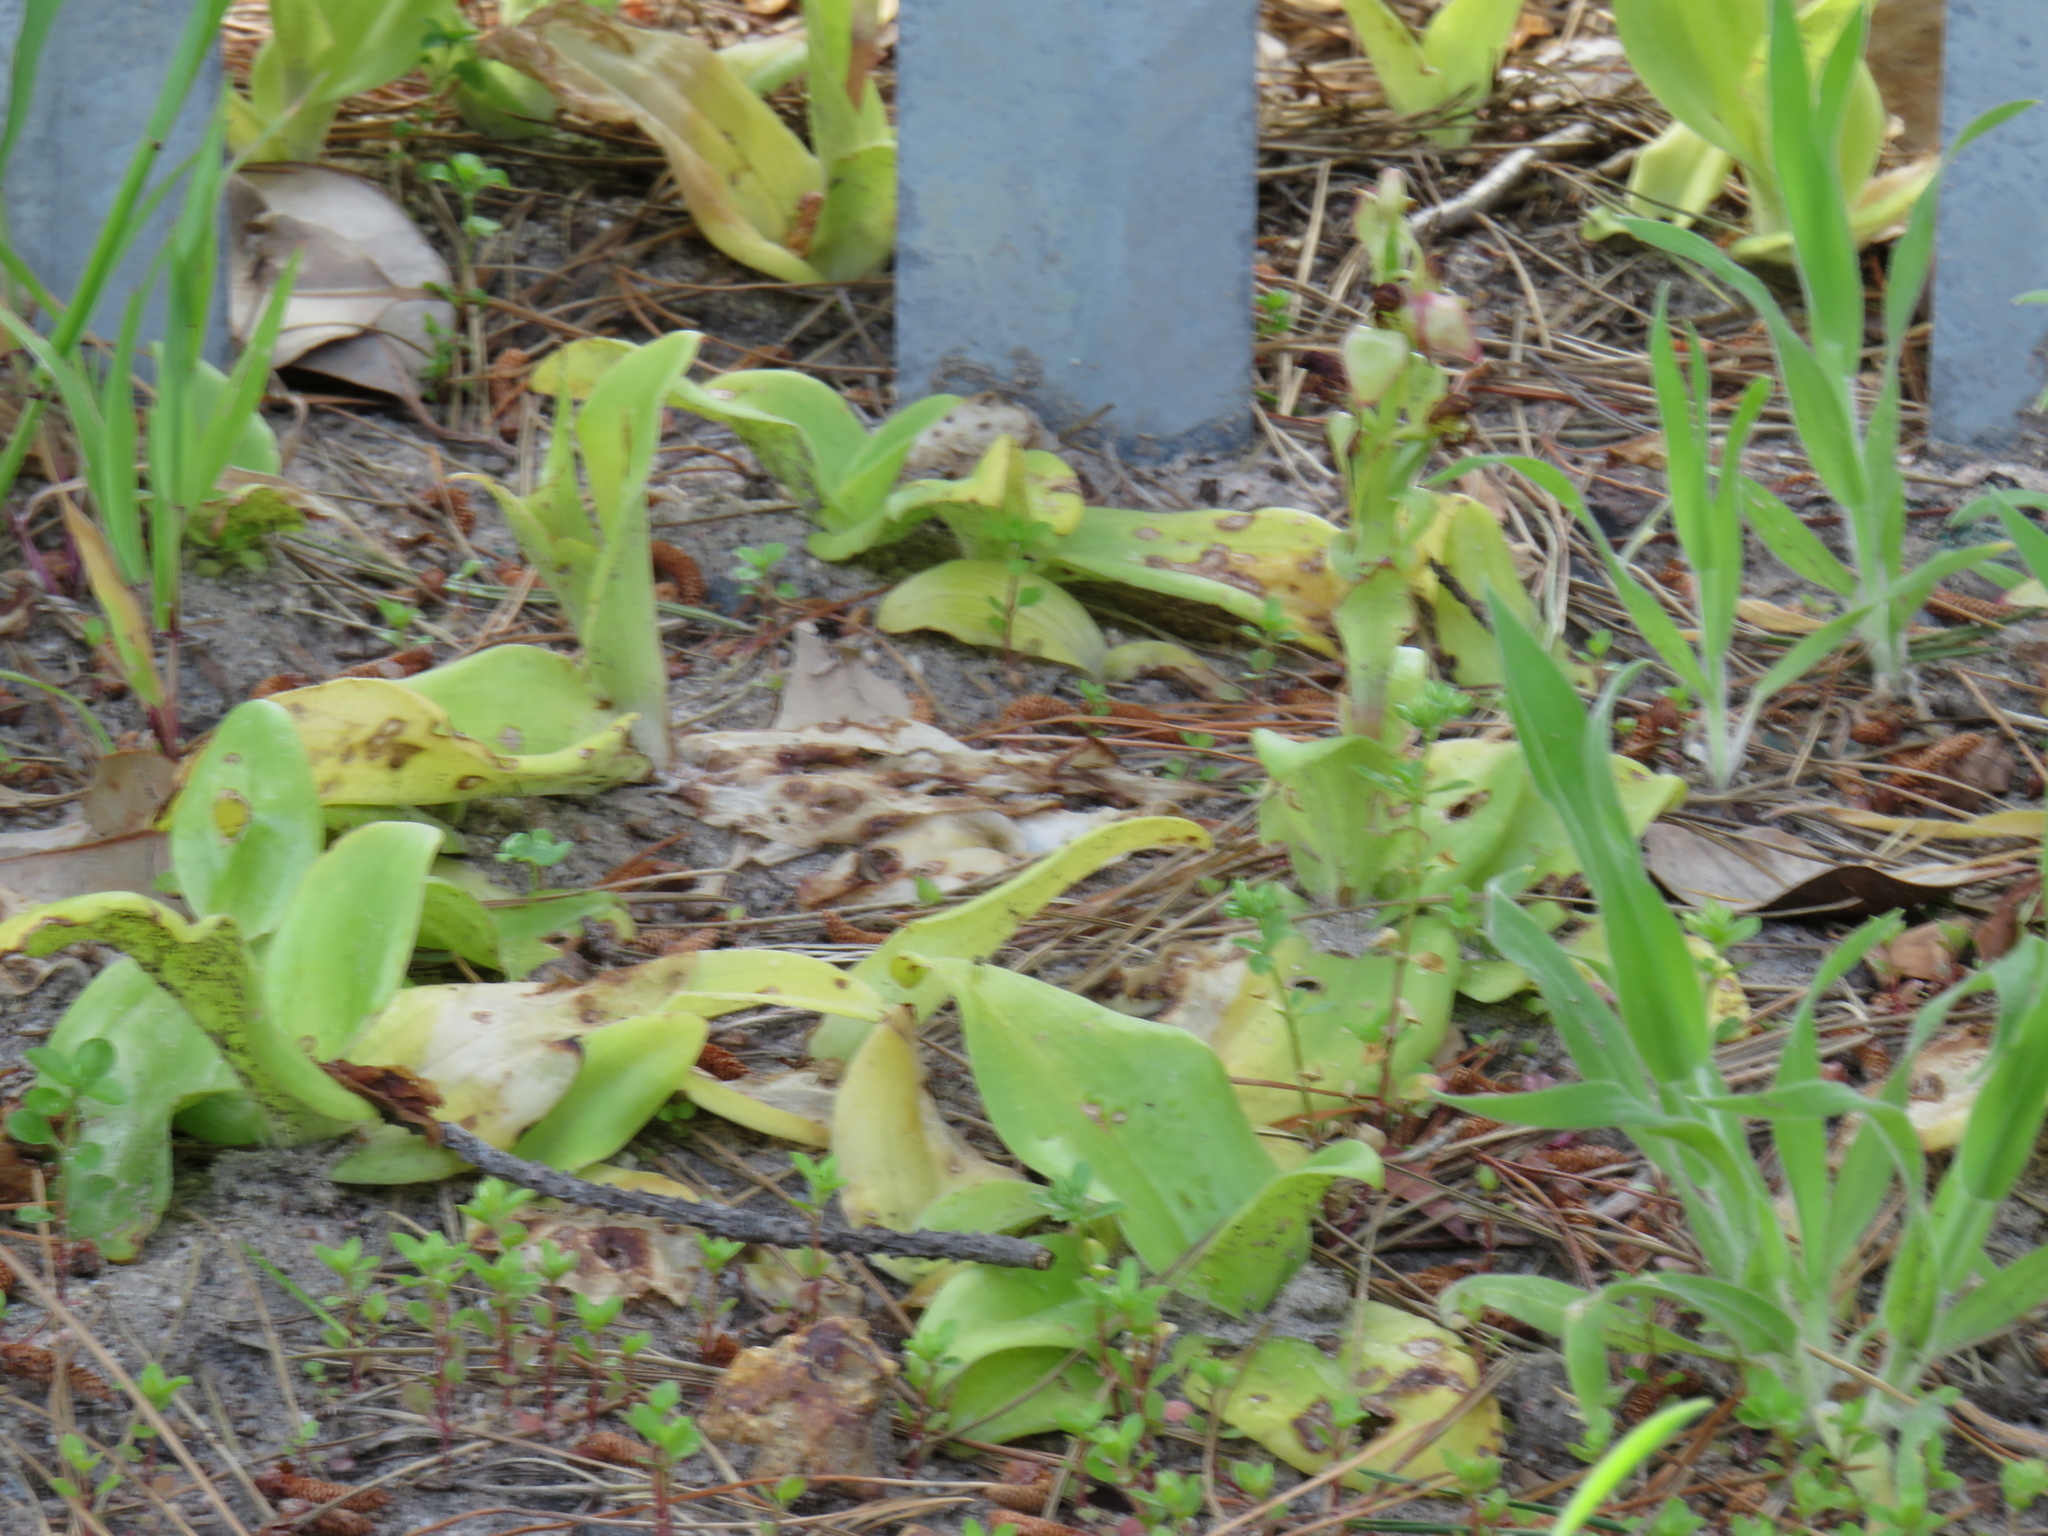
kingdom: Plantae
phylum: Tracheophyta
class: Liliopsida
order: Asparagales
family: Orchidaceae
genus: Satyrium
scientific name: Satyrium odorum
